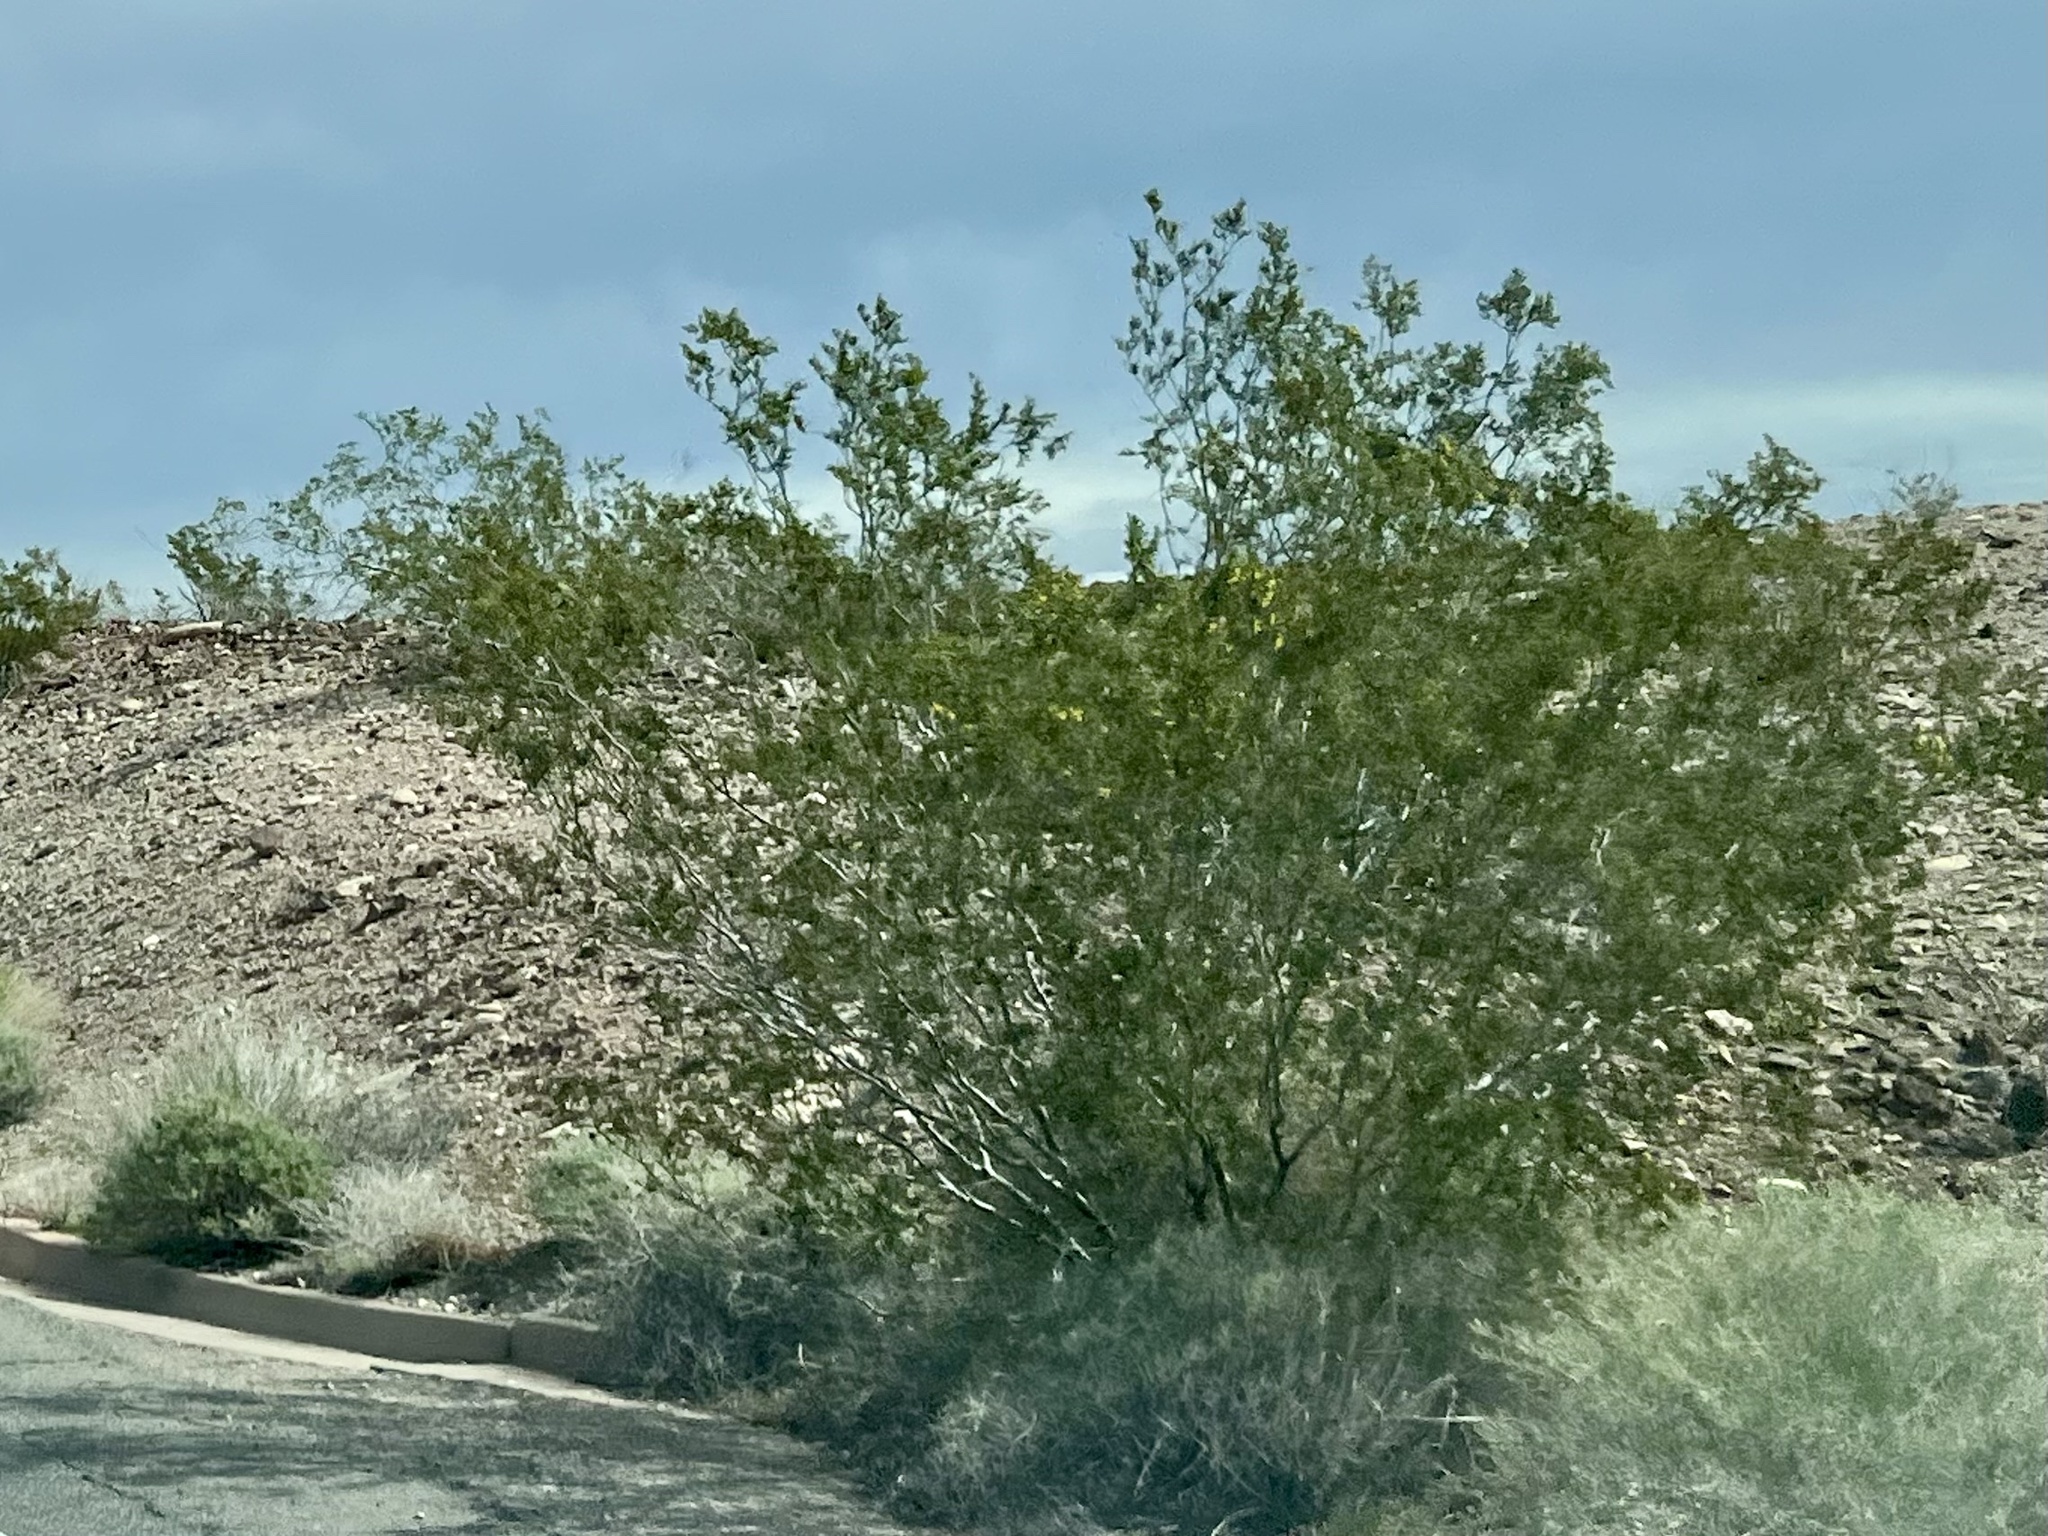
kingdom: Plantae
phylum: Tracheophyta
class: Magnoliopsida
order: Zygophyllales
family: Zygophyllaceae
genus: Larrea
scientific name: Larrea tridentata
